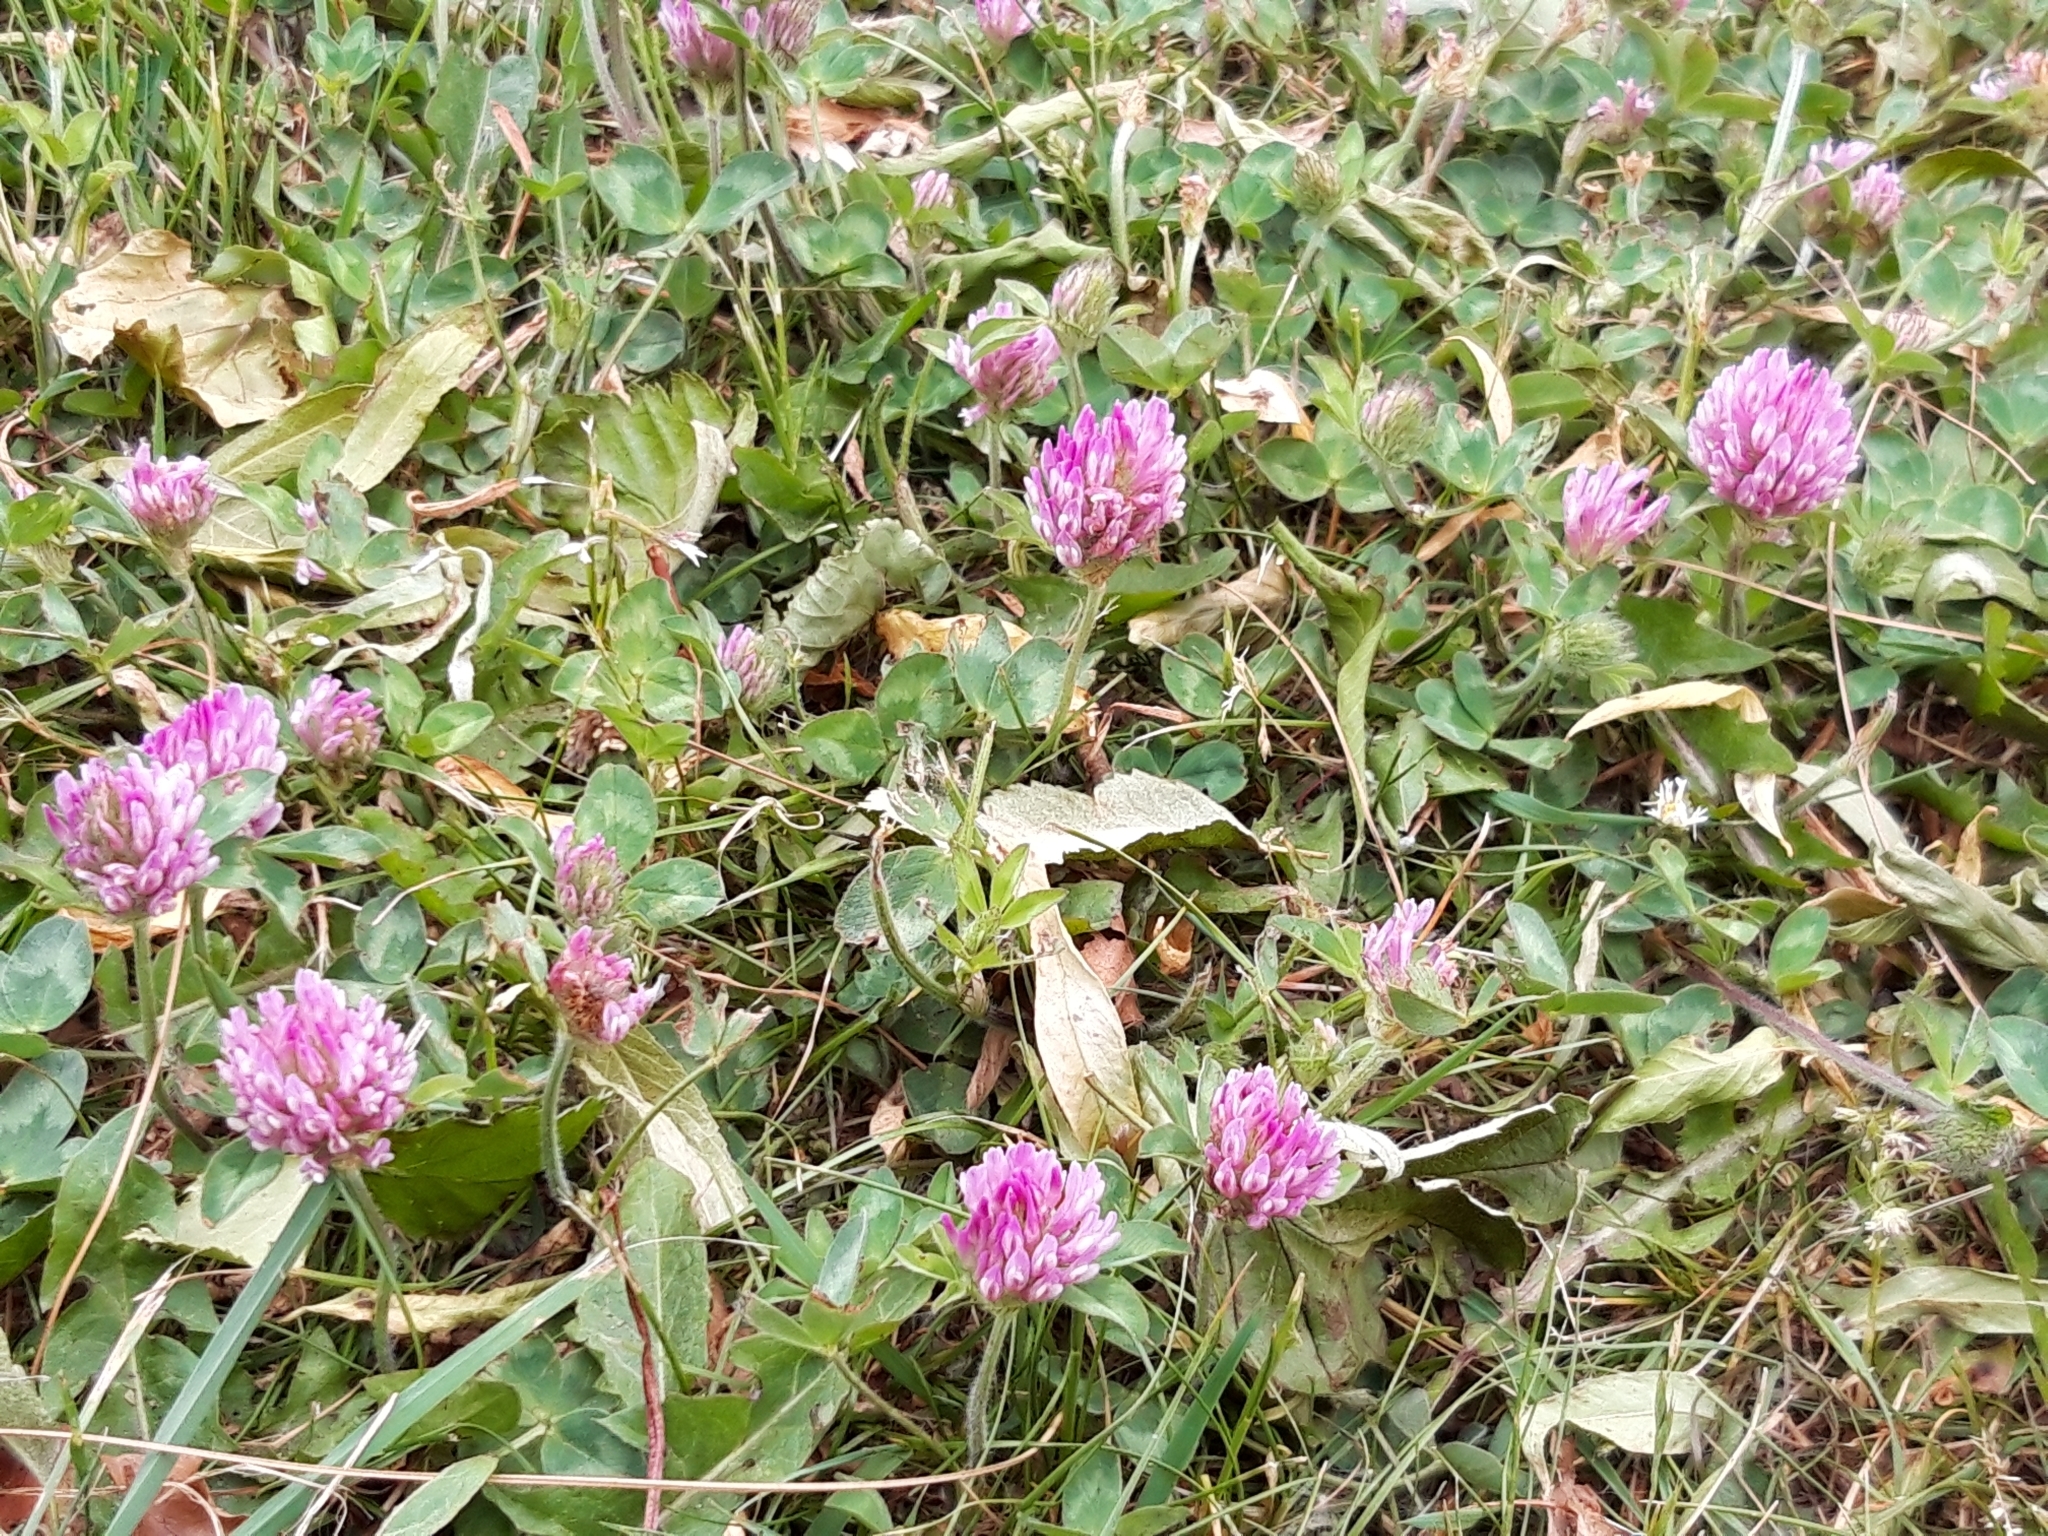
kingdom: Plantae
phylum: Tracheophyta
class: Magnoliopsida
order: Fabales
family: Fabaceae
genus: Trifolium
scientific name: Trifolium pratense
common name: Red clover
